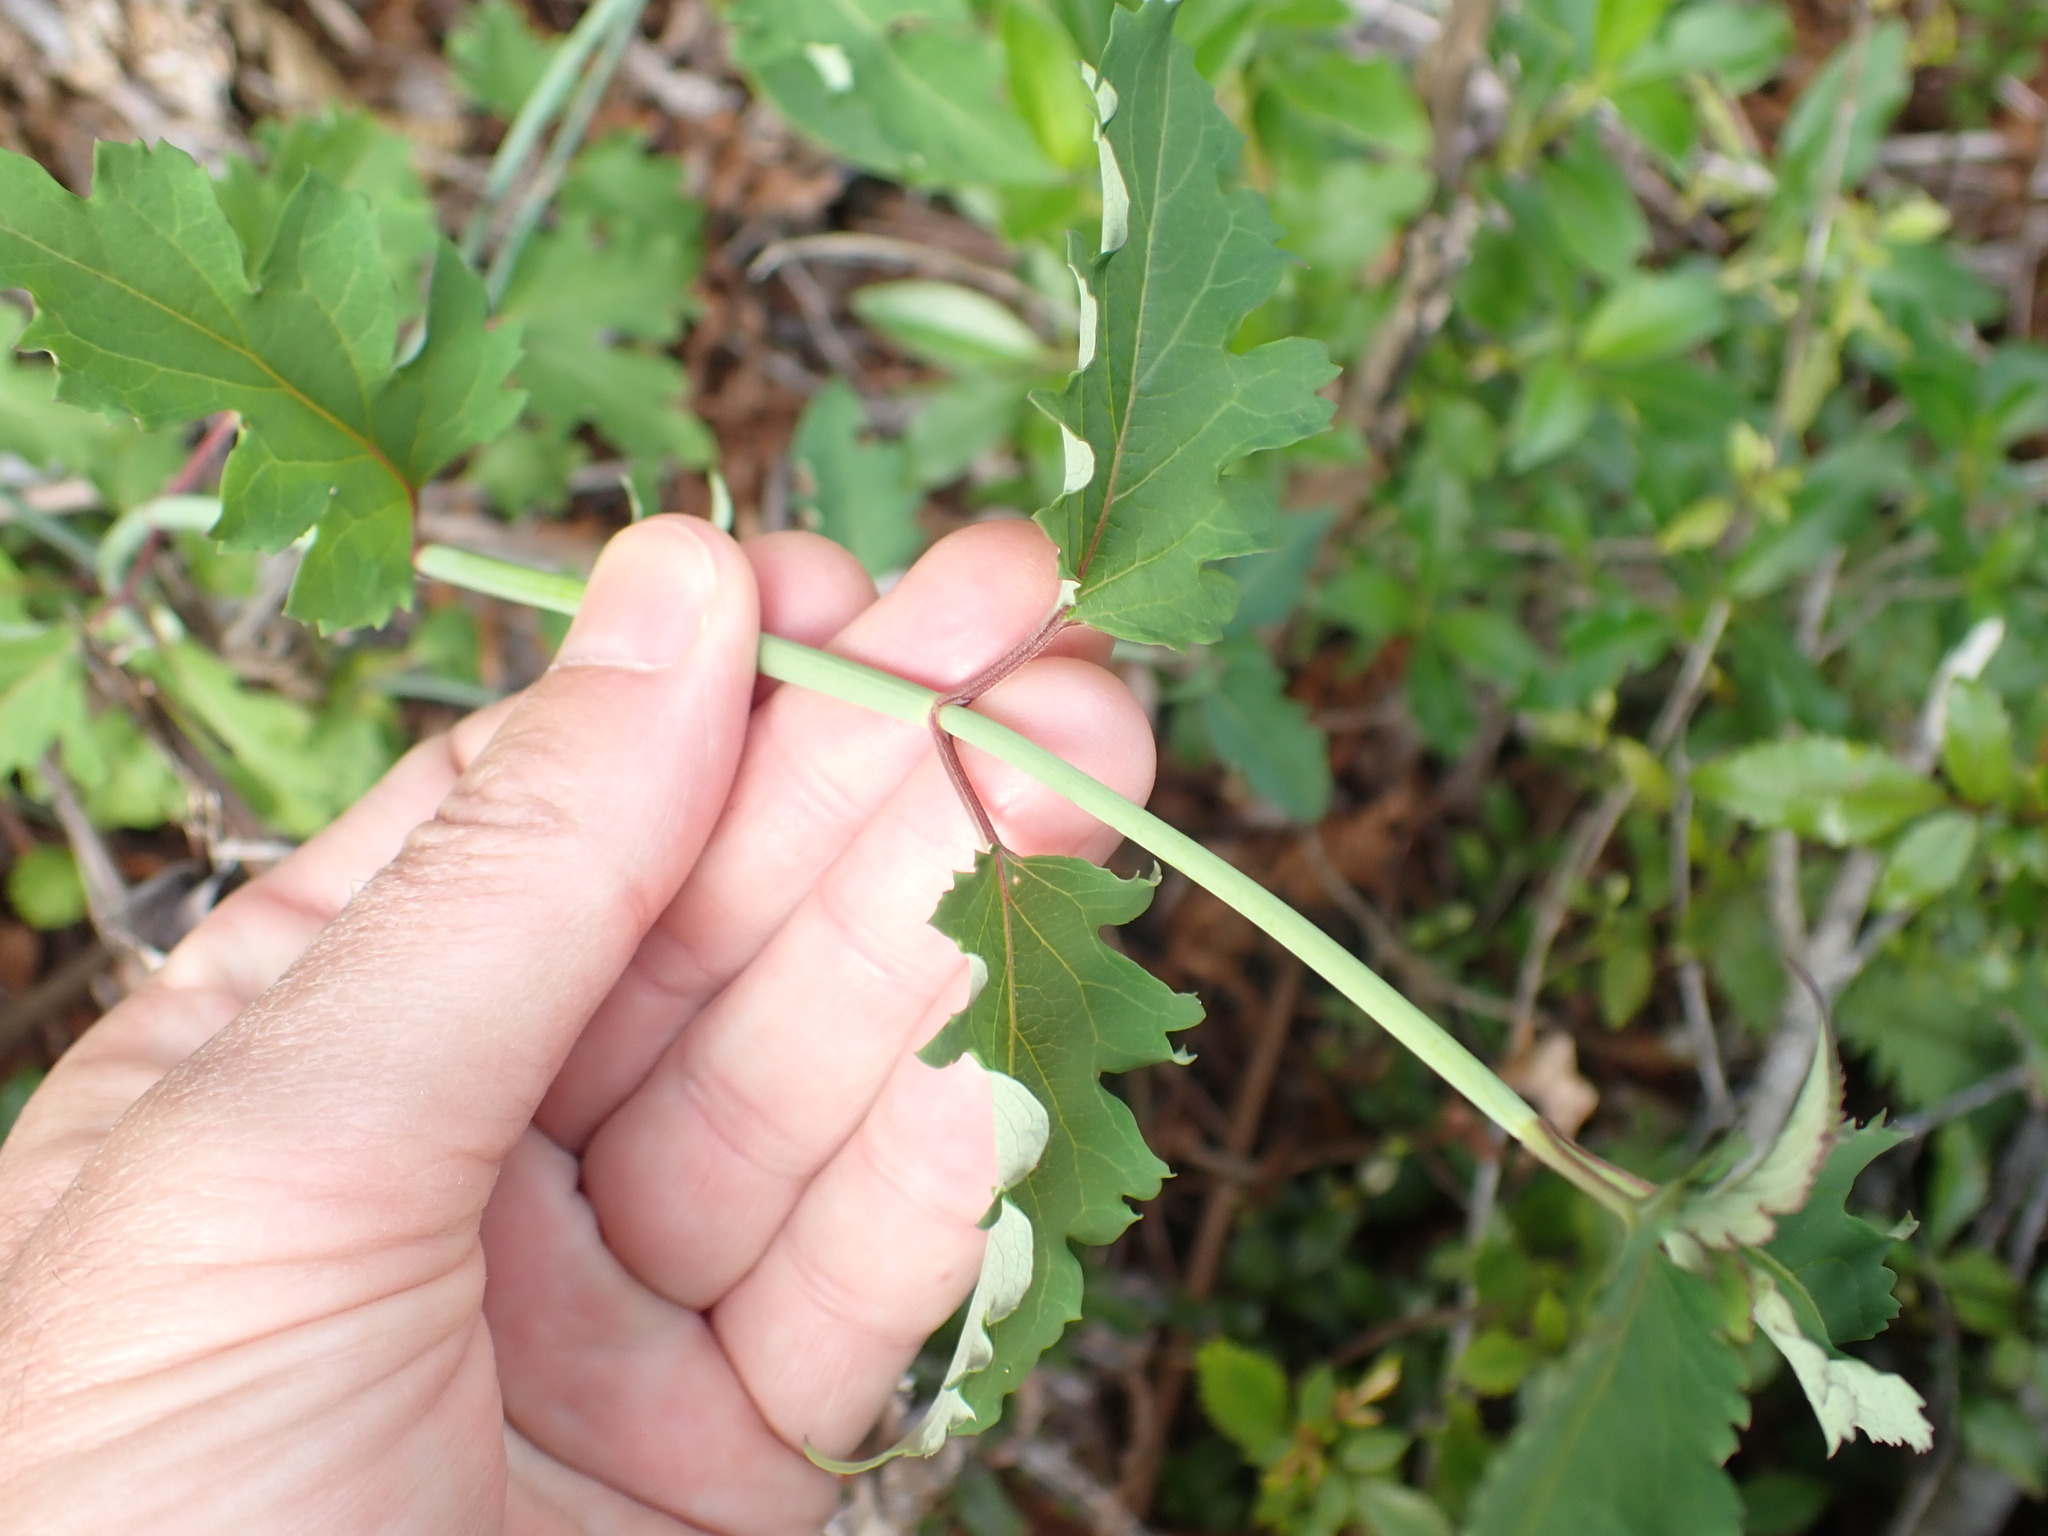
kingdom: Plantae
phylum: Tracheophyta
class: Magnoliopsida
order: Dipsacales
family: Caprifoliaceae
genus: Leycesteria
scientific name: Leycesteria formosa
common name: Himalayan honeysuckle
